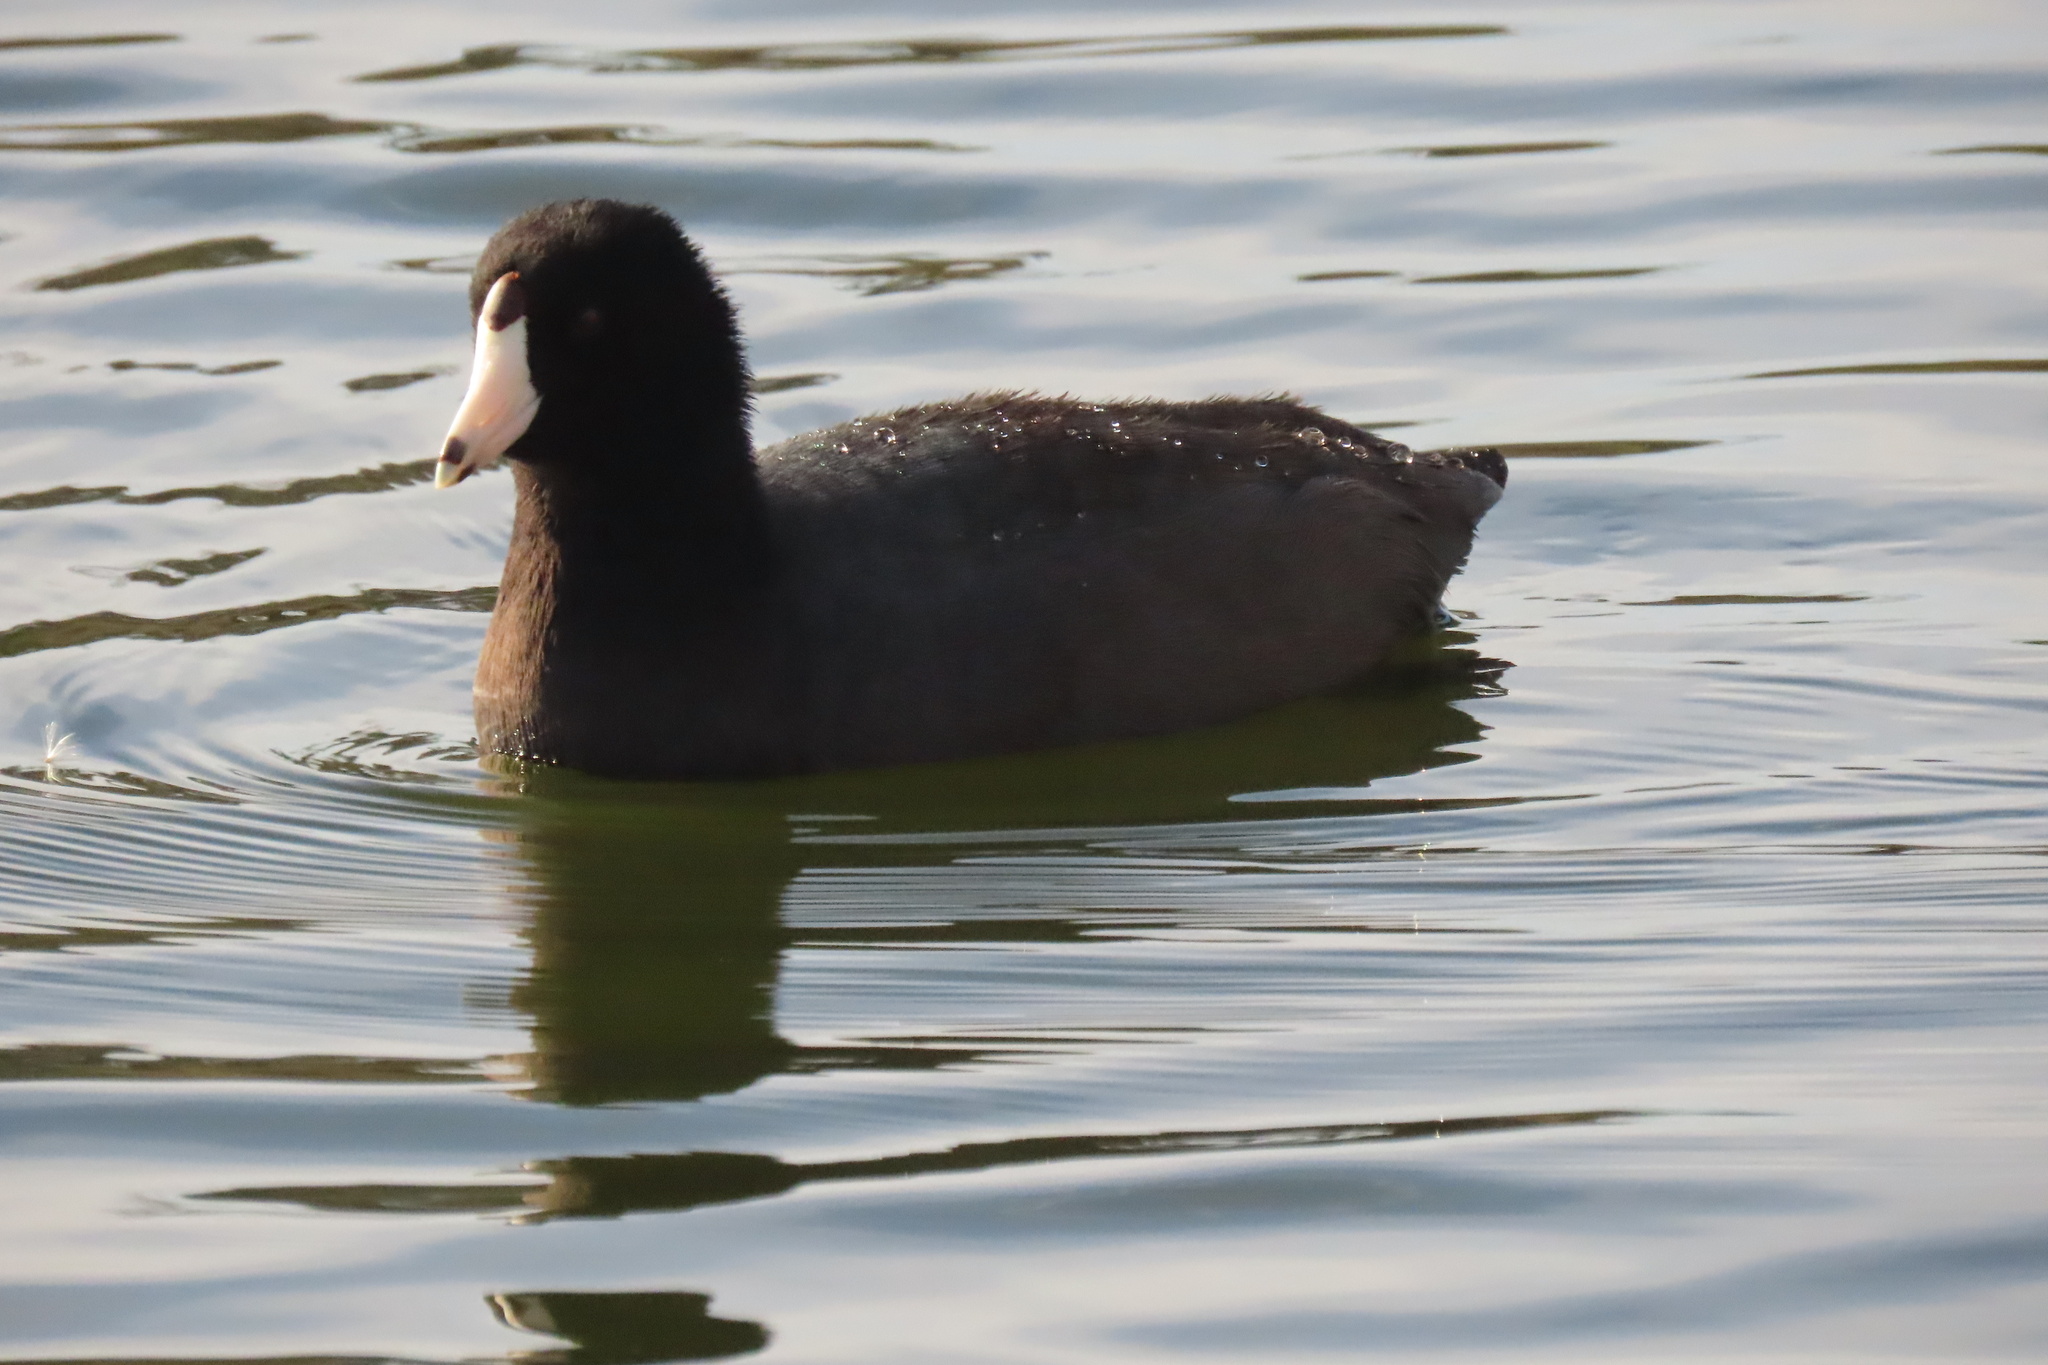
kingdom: Animalia
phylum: Chordata
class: Aves
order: Gruiformes
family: Rallidae
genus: Fulica
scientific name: Fulica americana
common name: American coot
